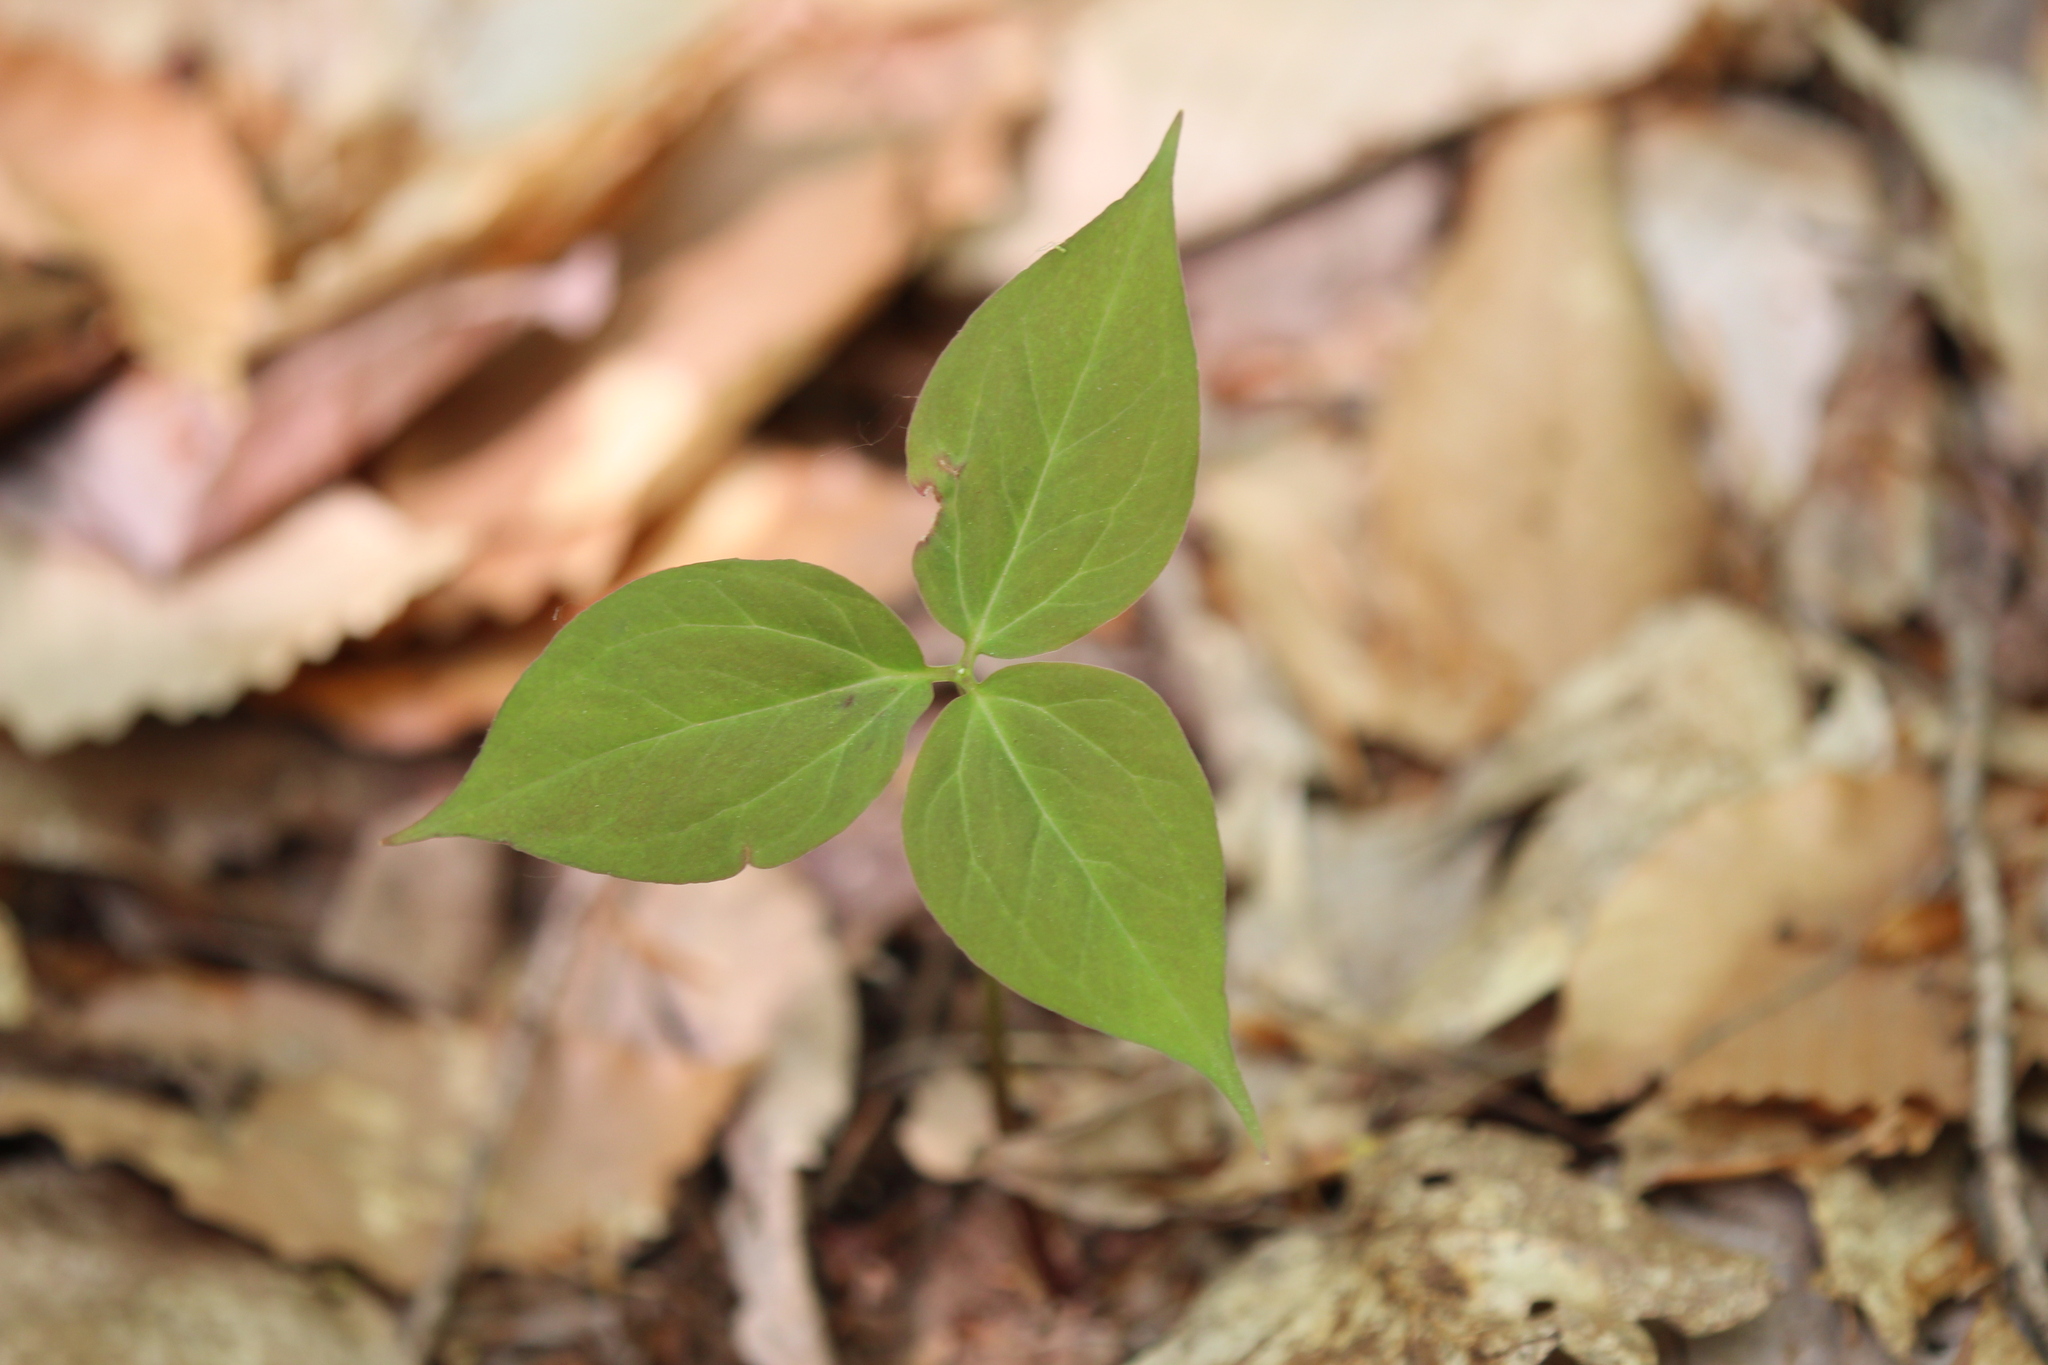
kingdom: Plantae
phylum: Tracheophyta
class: Liliopsida
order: Liliales
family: Melanthiaceae
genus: Trillium
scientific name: Trillium undulatum
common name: Paint trillium
